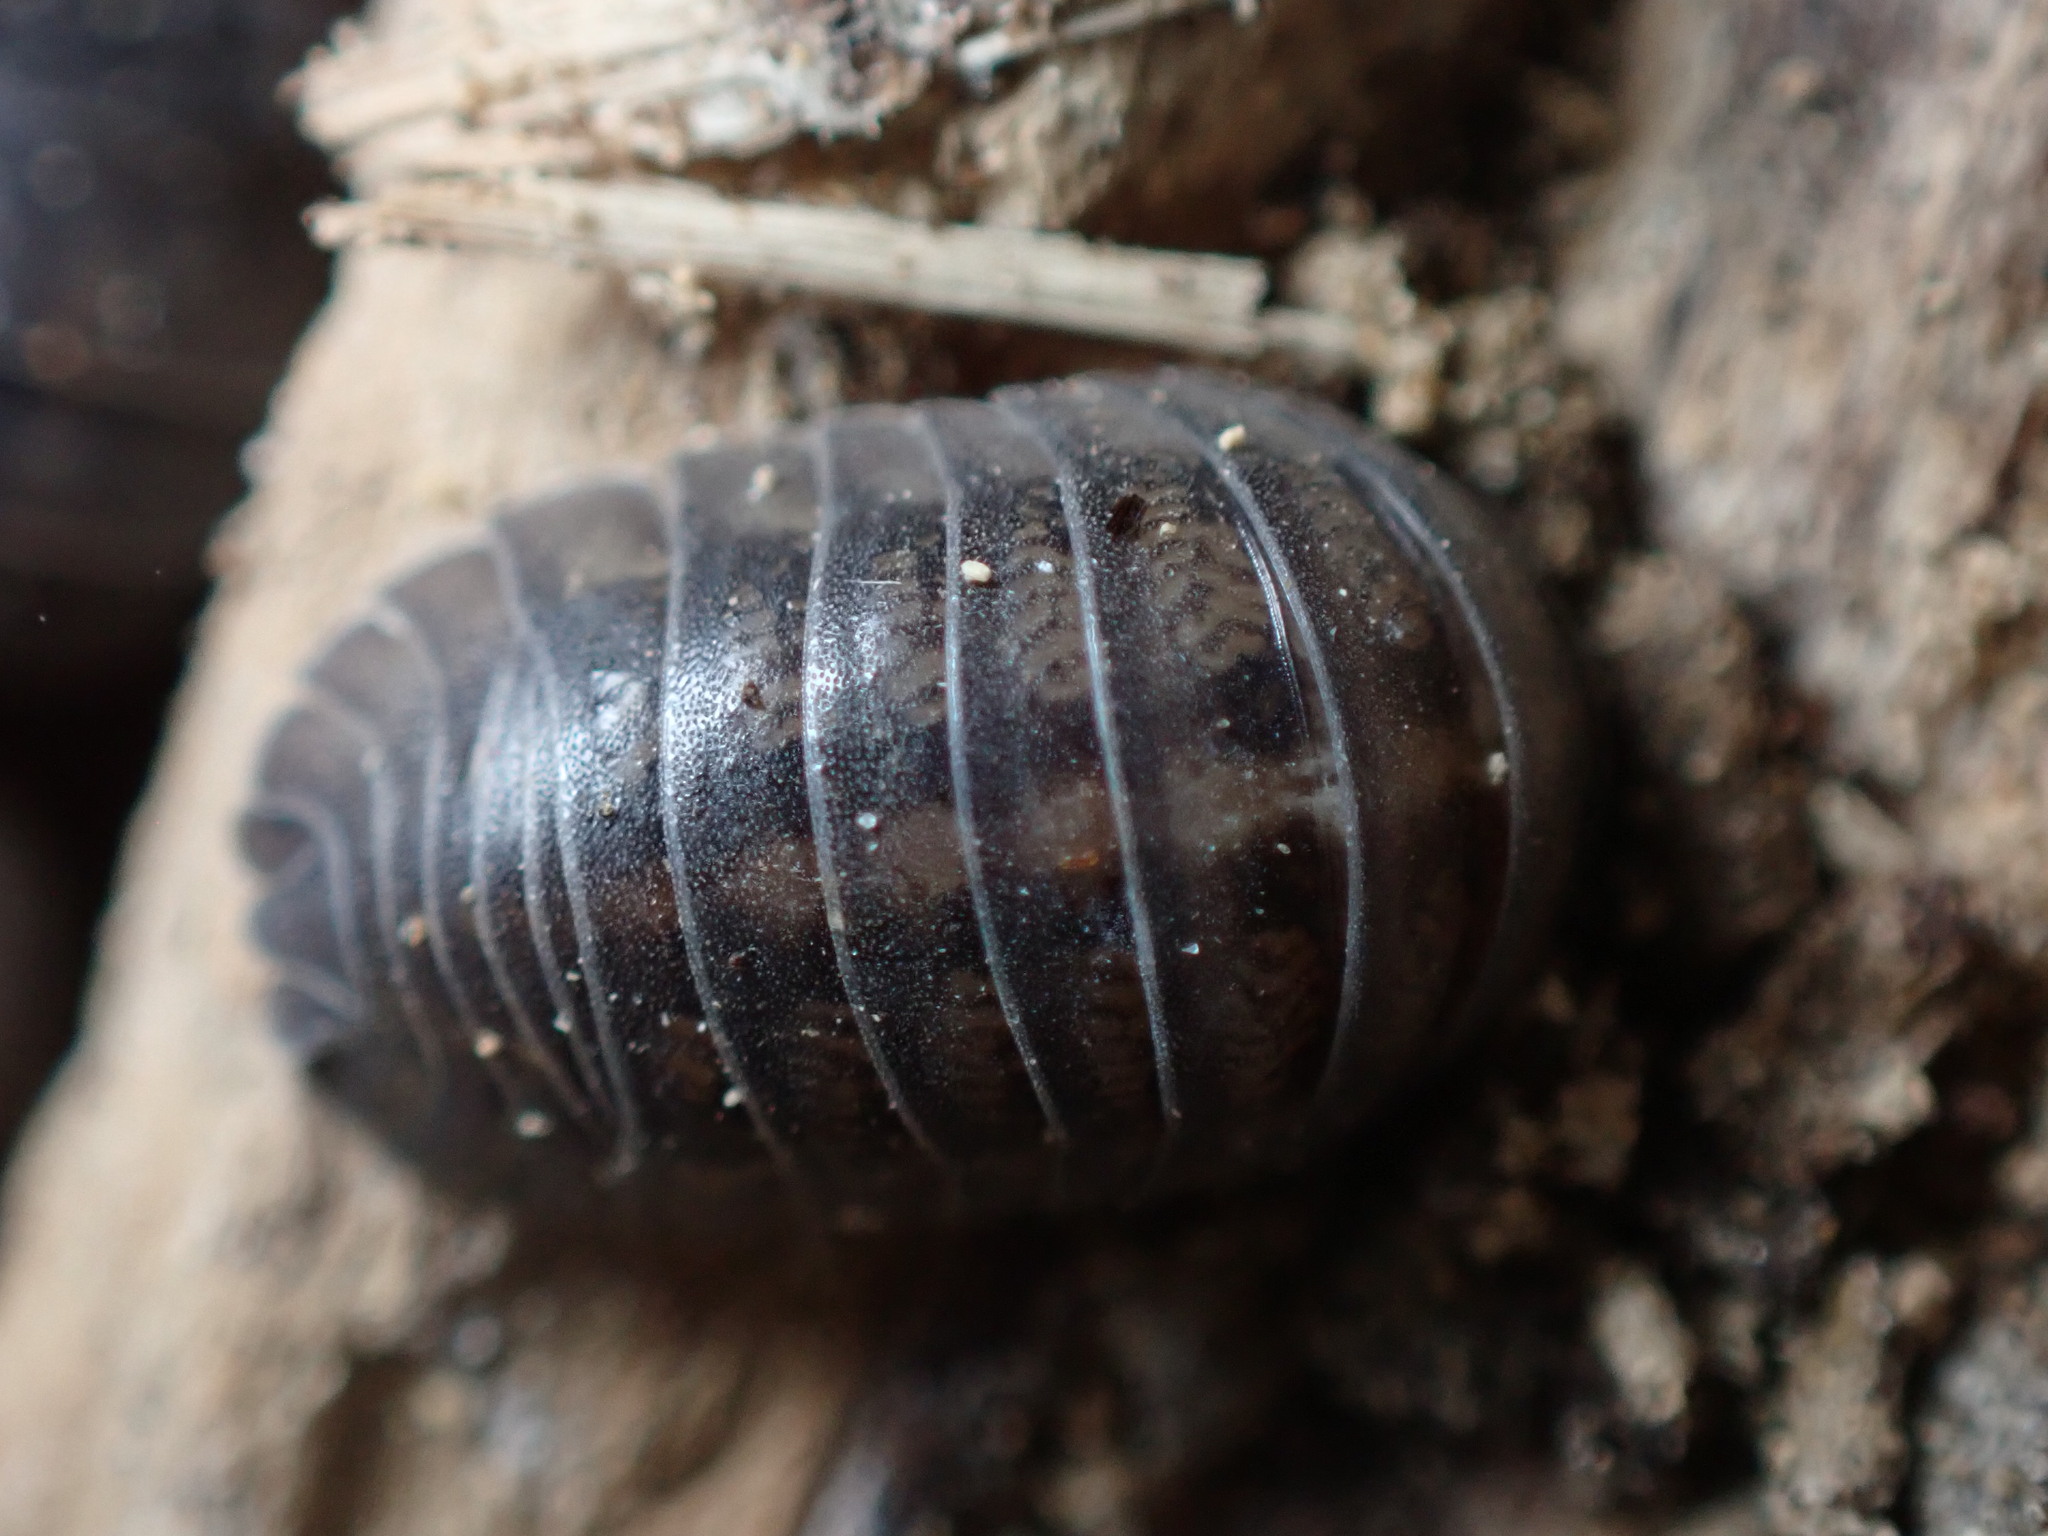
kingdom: Animalia
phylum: Arthropoda
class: Malacostraca
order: Isopoda
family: Armadillidiidae
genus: Armadillidium
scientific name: Armadillidium nasatum
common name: Isopod
